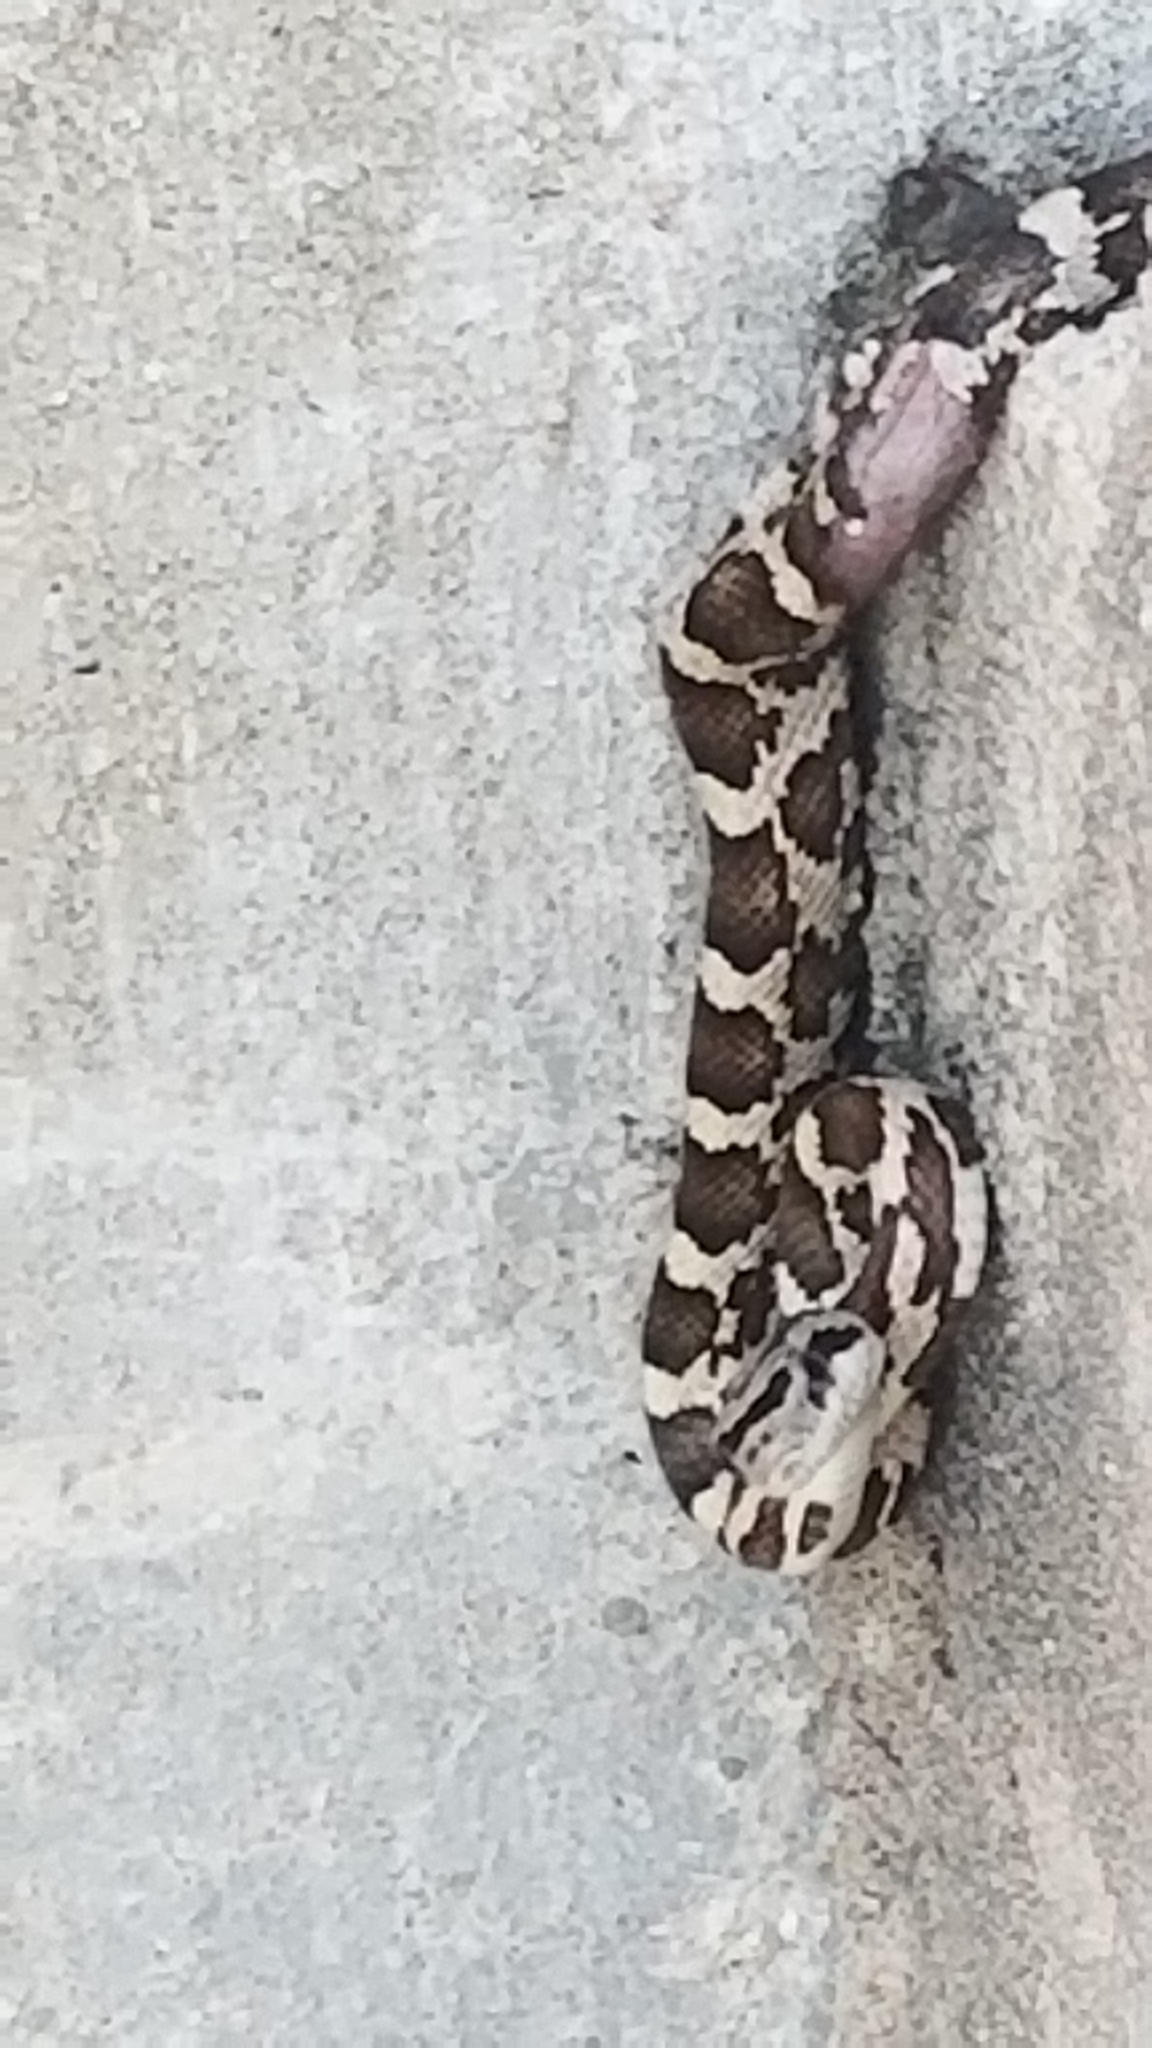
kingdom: Animalia
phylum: Chordata
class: Squamata
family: Colubridae
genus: Pantherophis
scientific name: Pantherophis obsoletus
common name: Black rat snake
